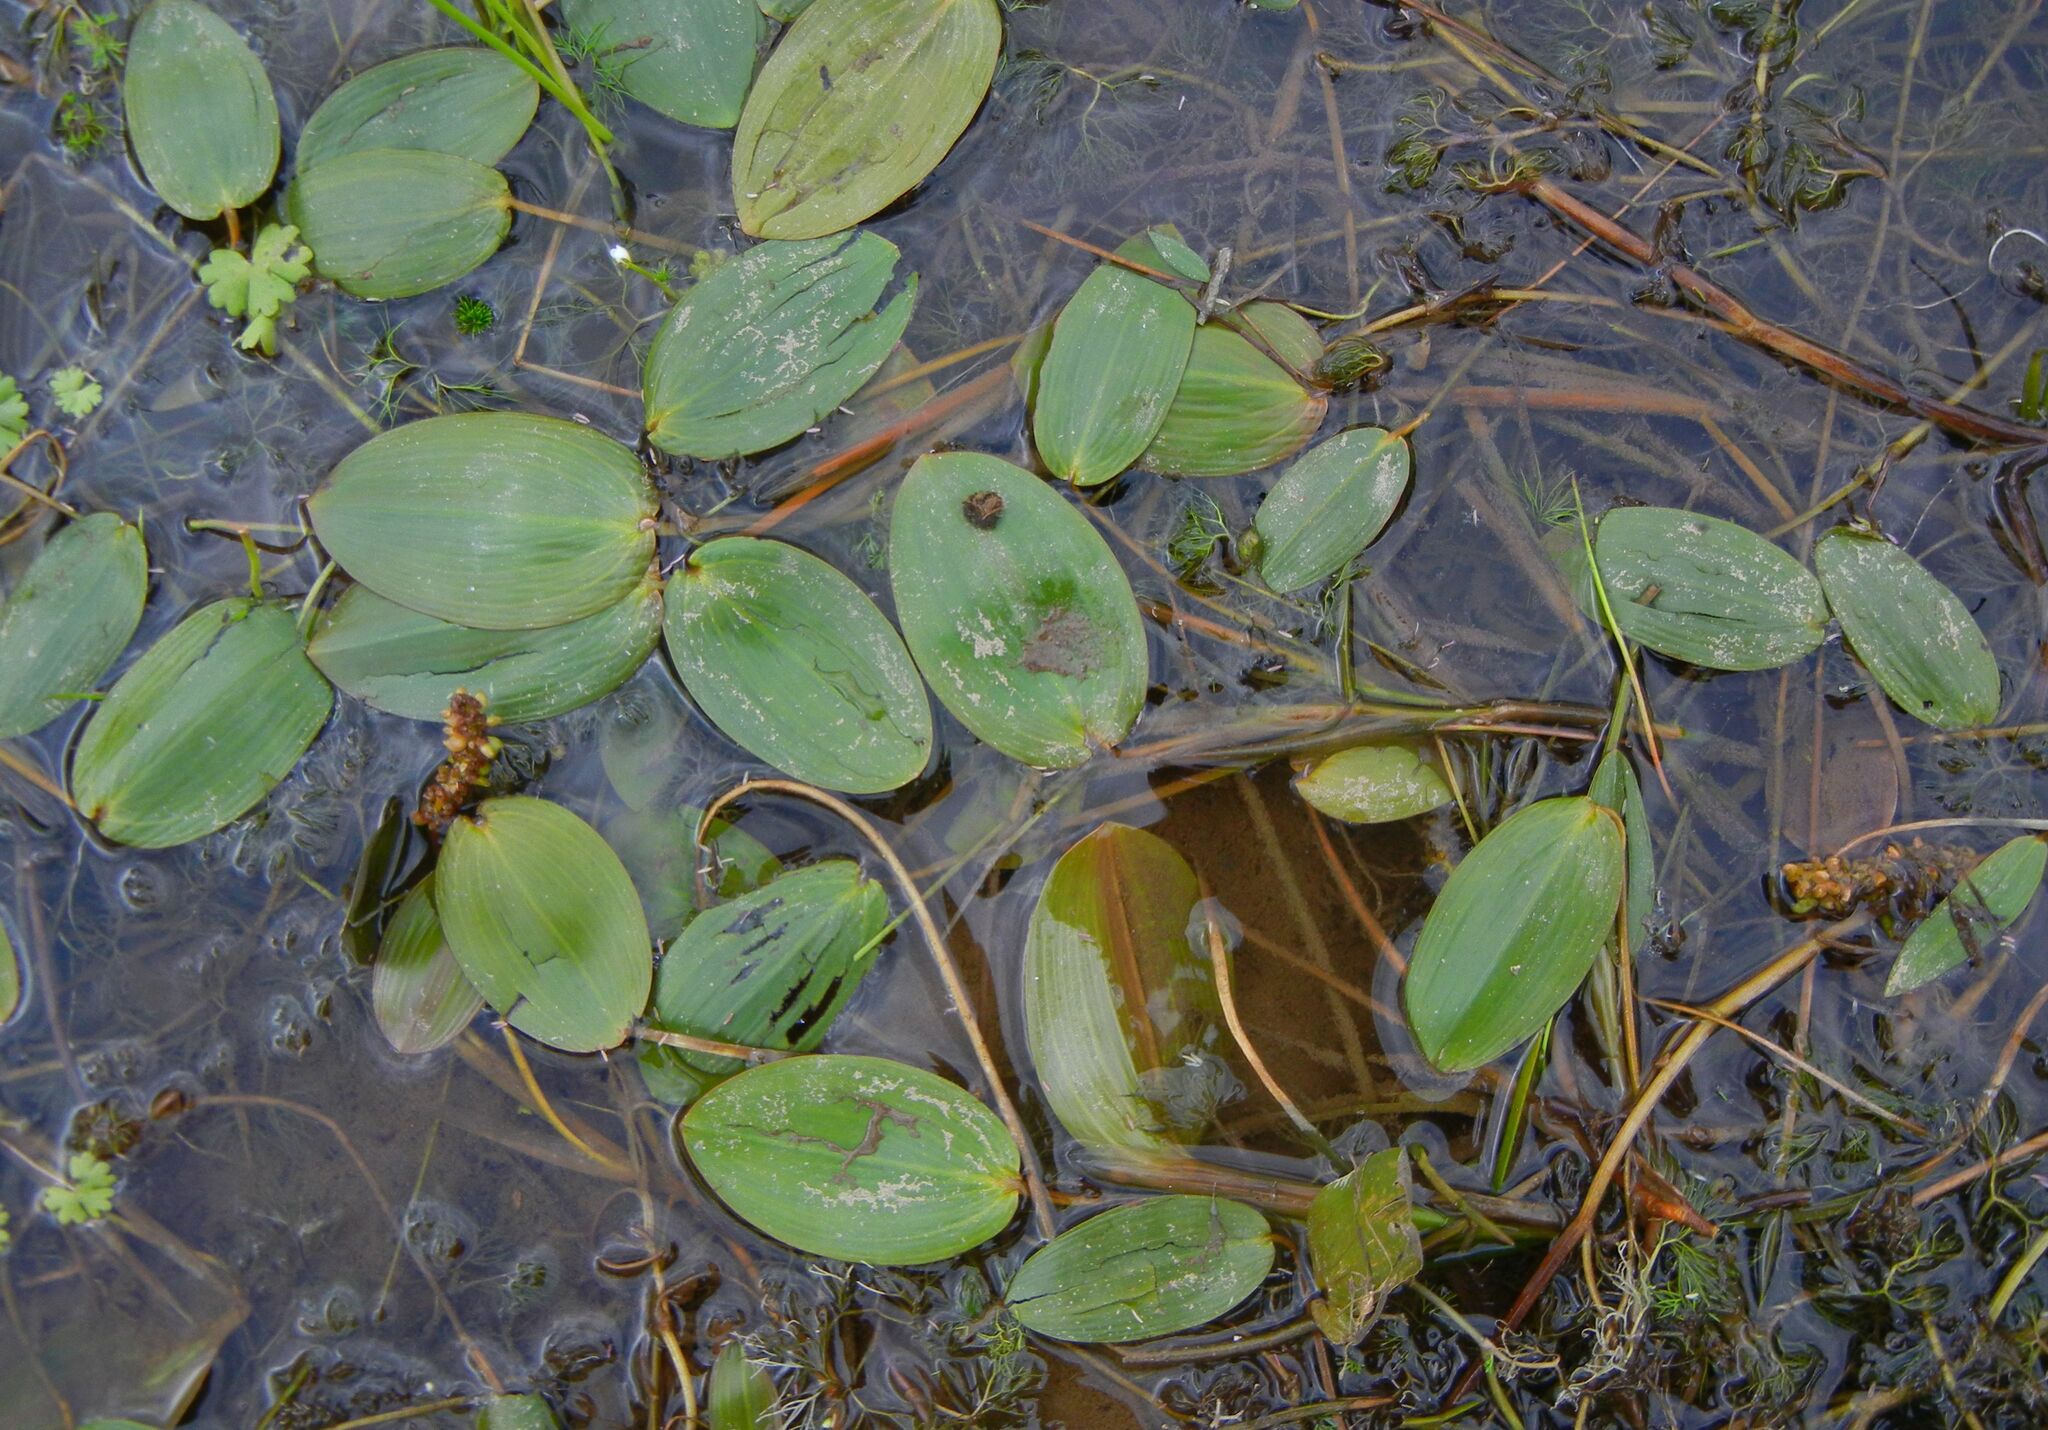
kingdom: Plantae
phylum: Tracheophyta
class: Liliopsida
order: Alismatales
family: Potamogetonaceae
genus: Potamogeton
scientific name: Potamogeton natans
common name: Broad-leaved pondweed
